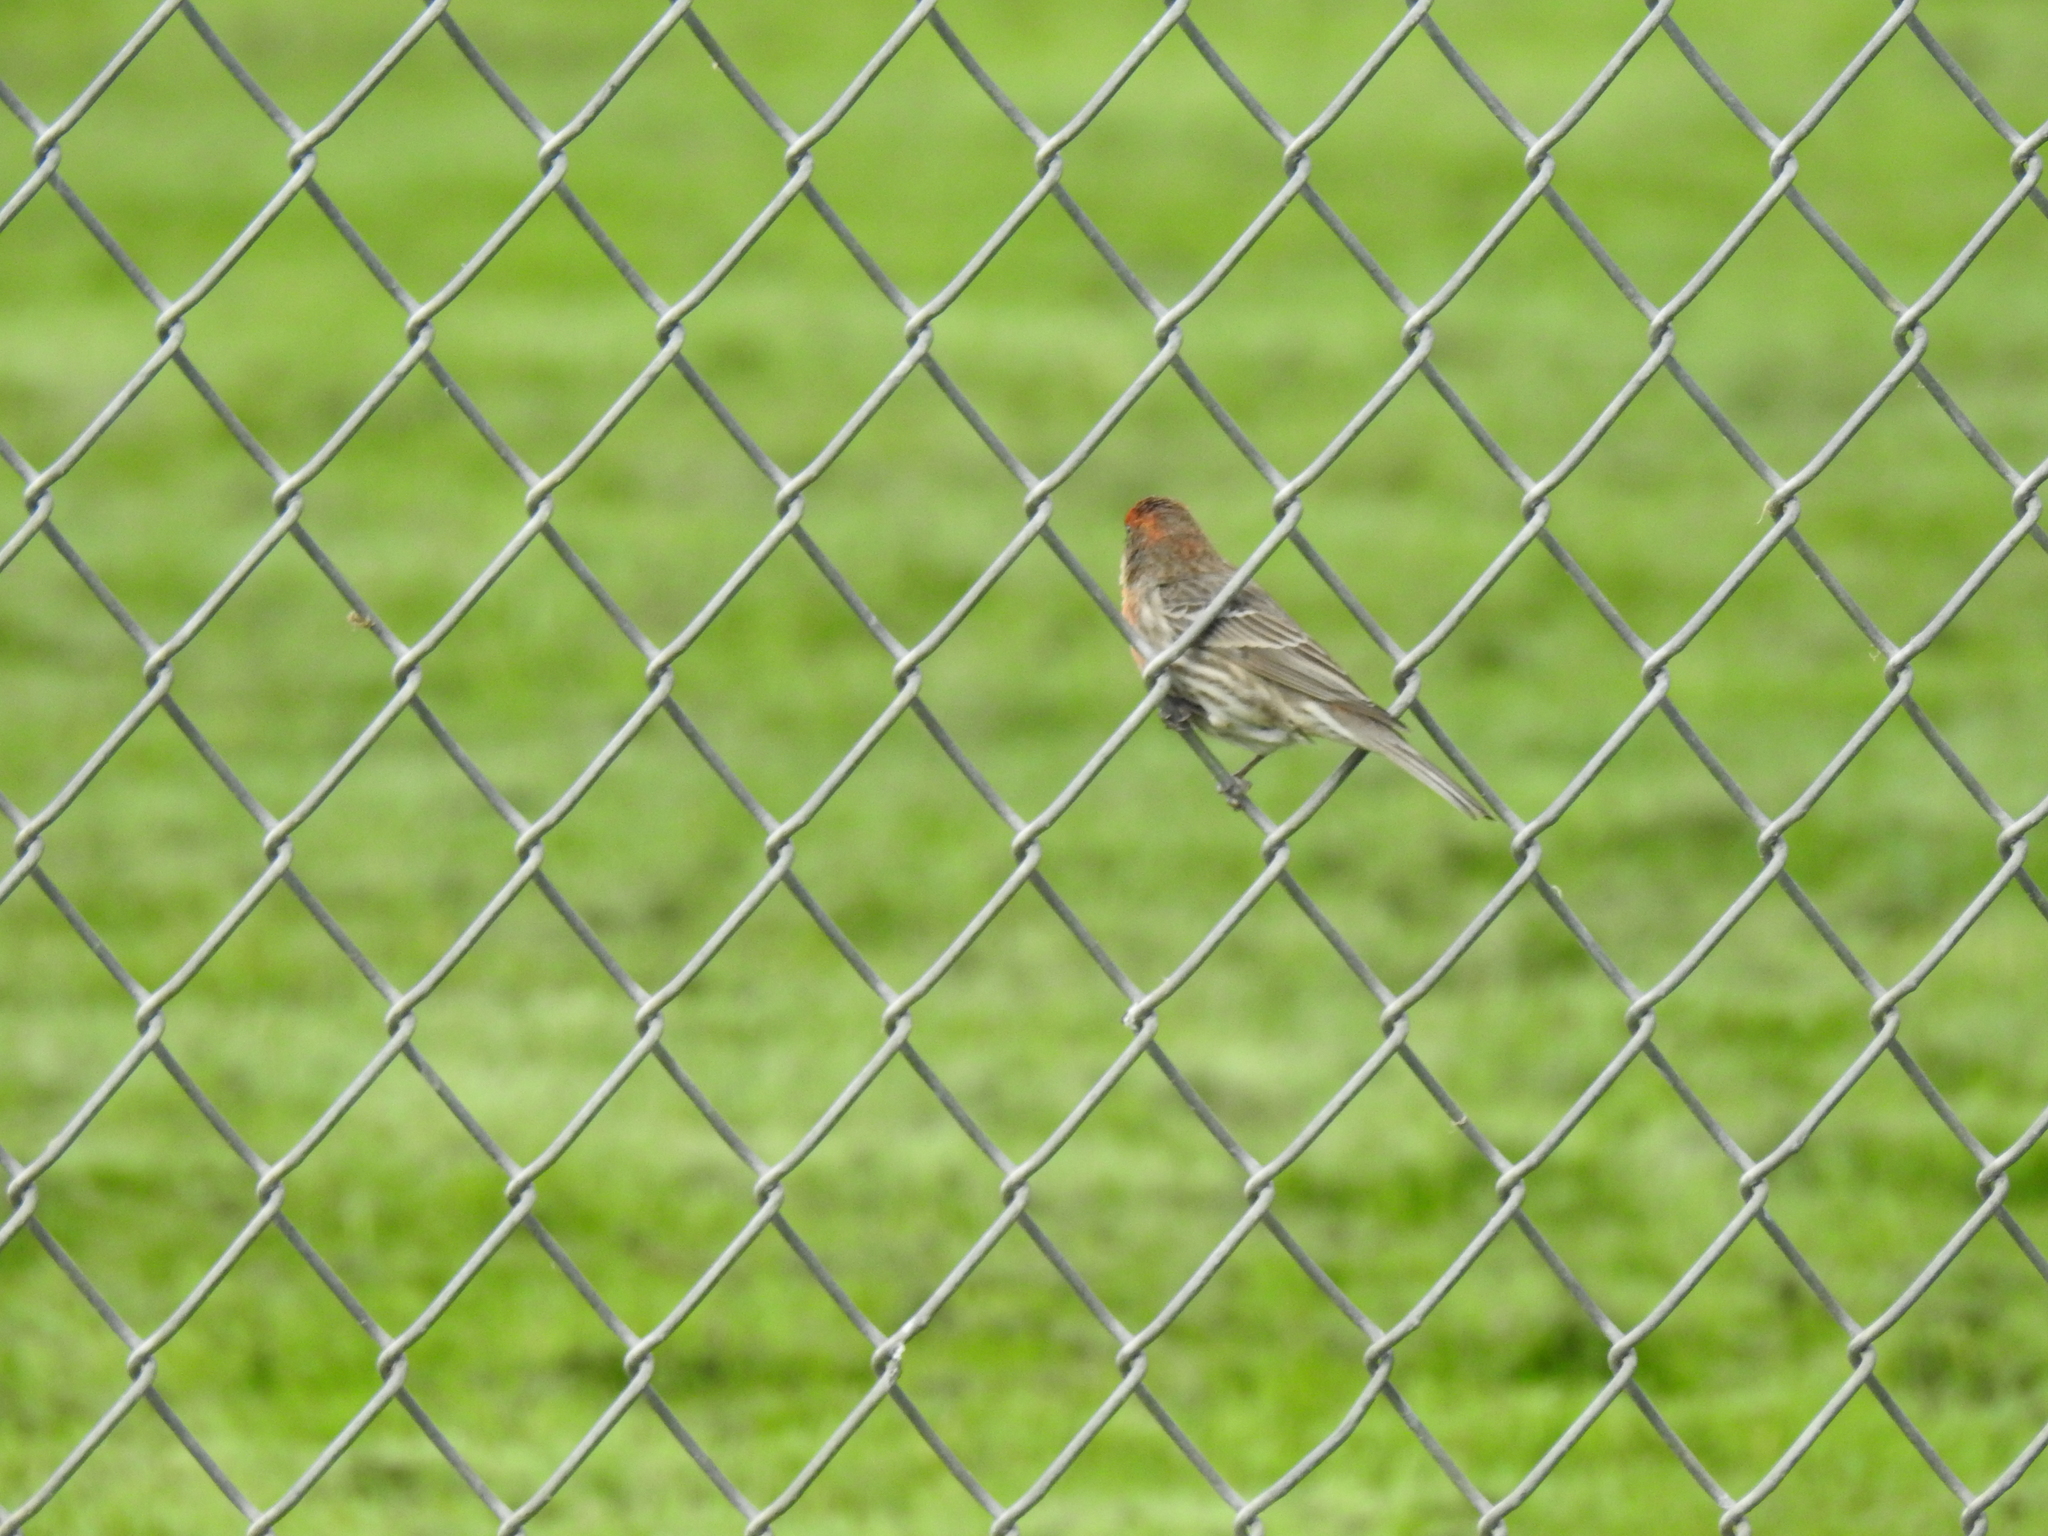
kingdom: Animalia
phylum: Chordata
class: Aves
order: Passeriformes
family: Fringillidae
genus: Haemorhous
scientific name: Haemorhous mexicanus
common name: House finch
